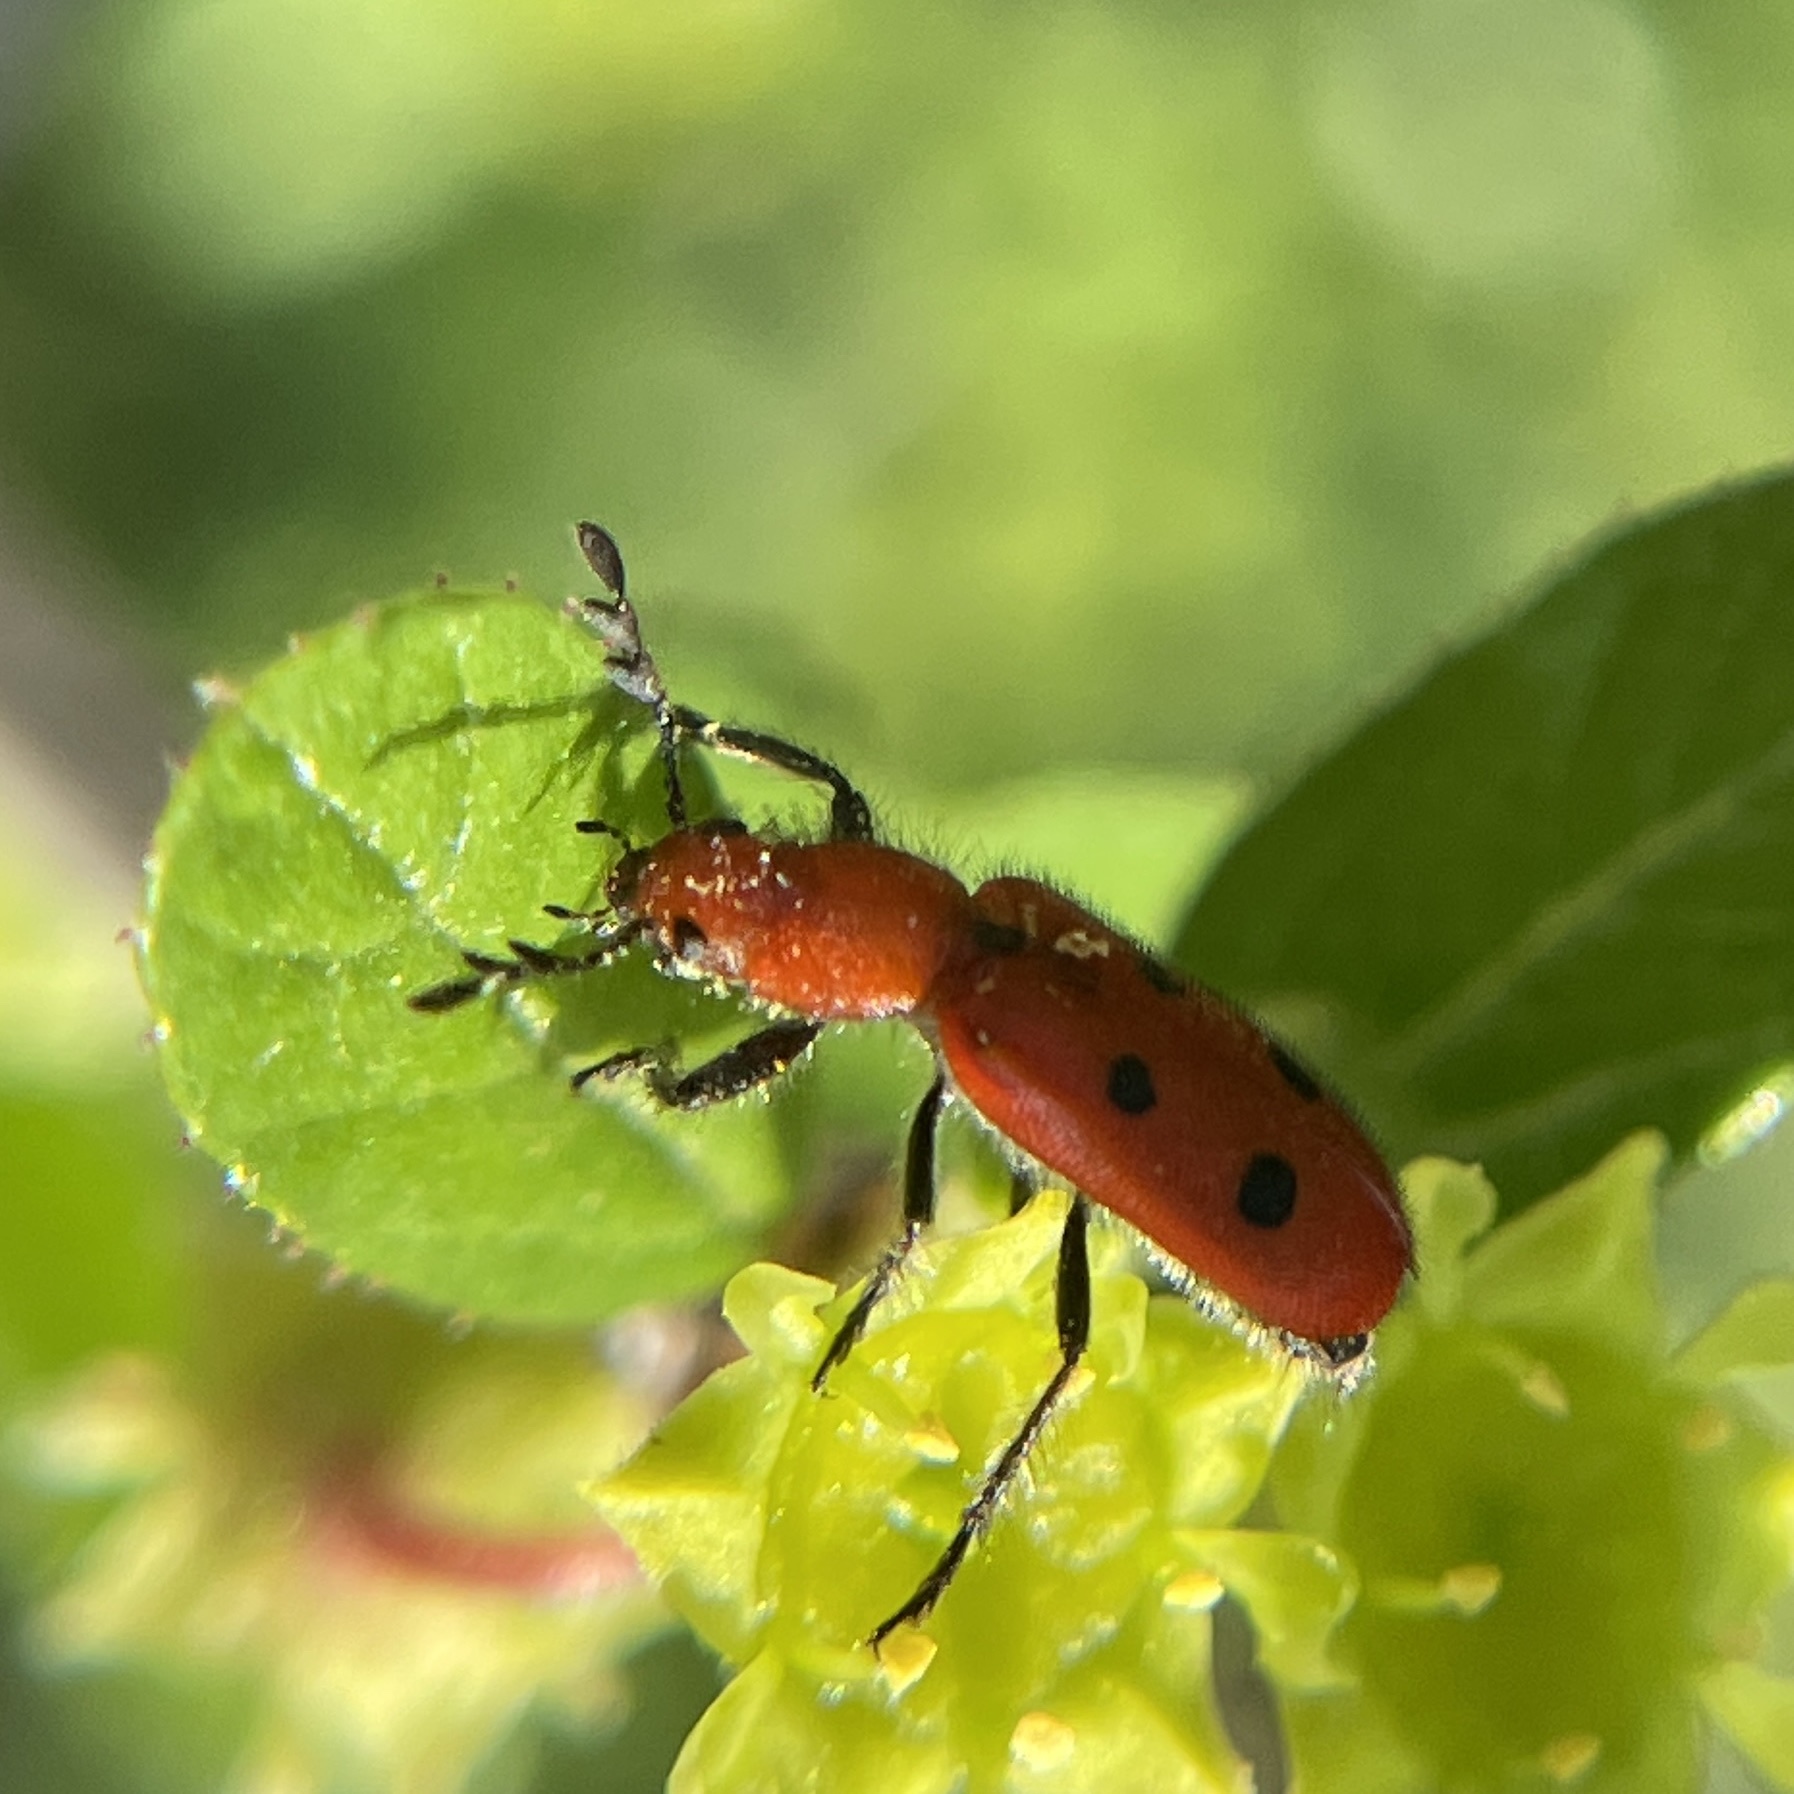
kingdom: Animalia
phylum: Arthropoda
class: Insecta
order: Coleoptera
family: Cleridae
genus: Pelonides
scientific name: Pelonides
